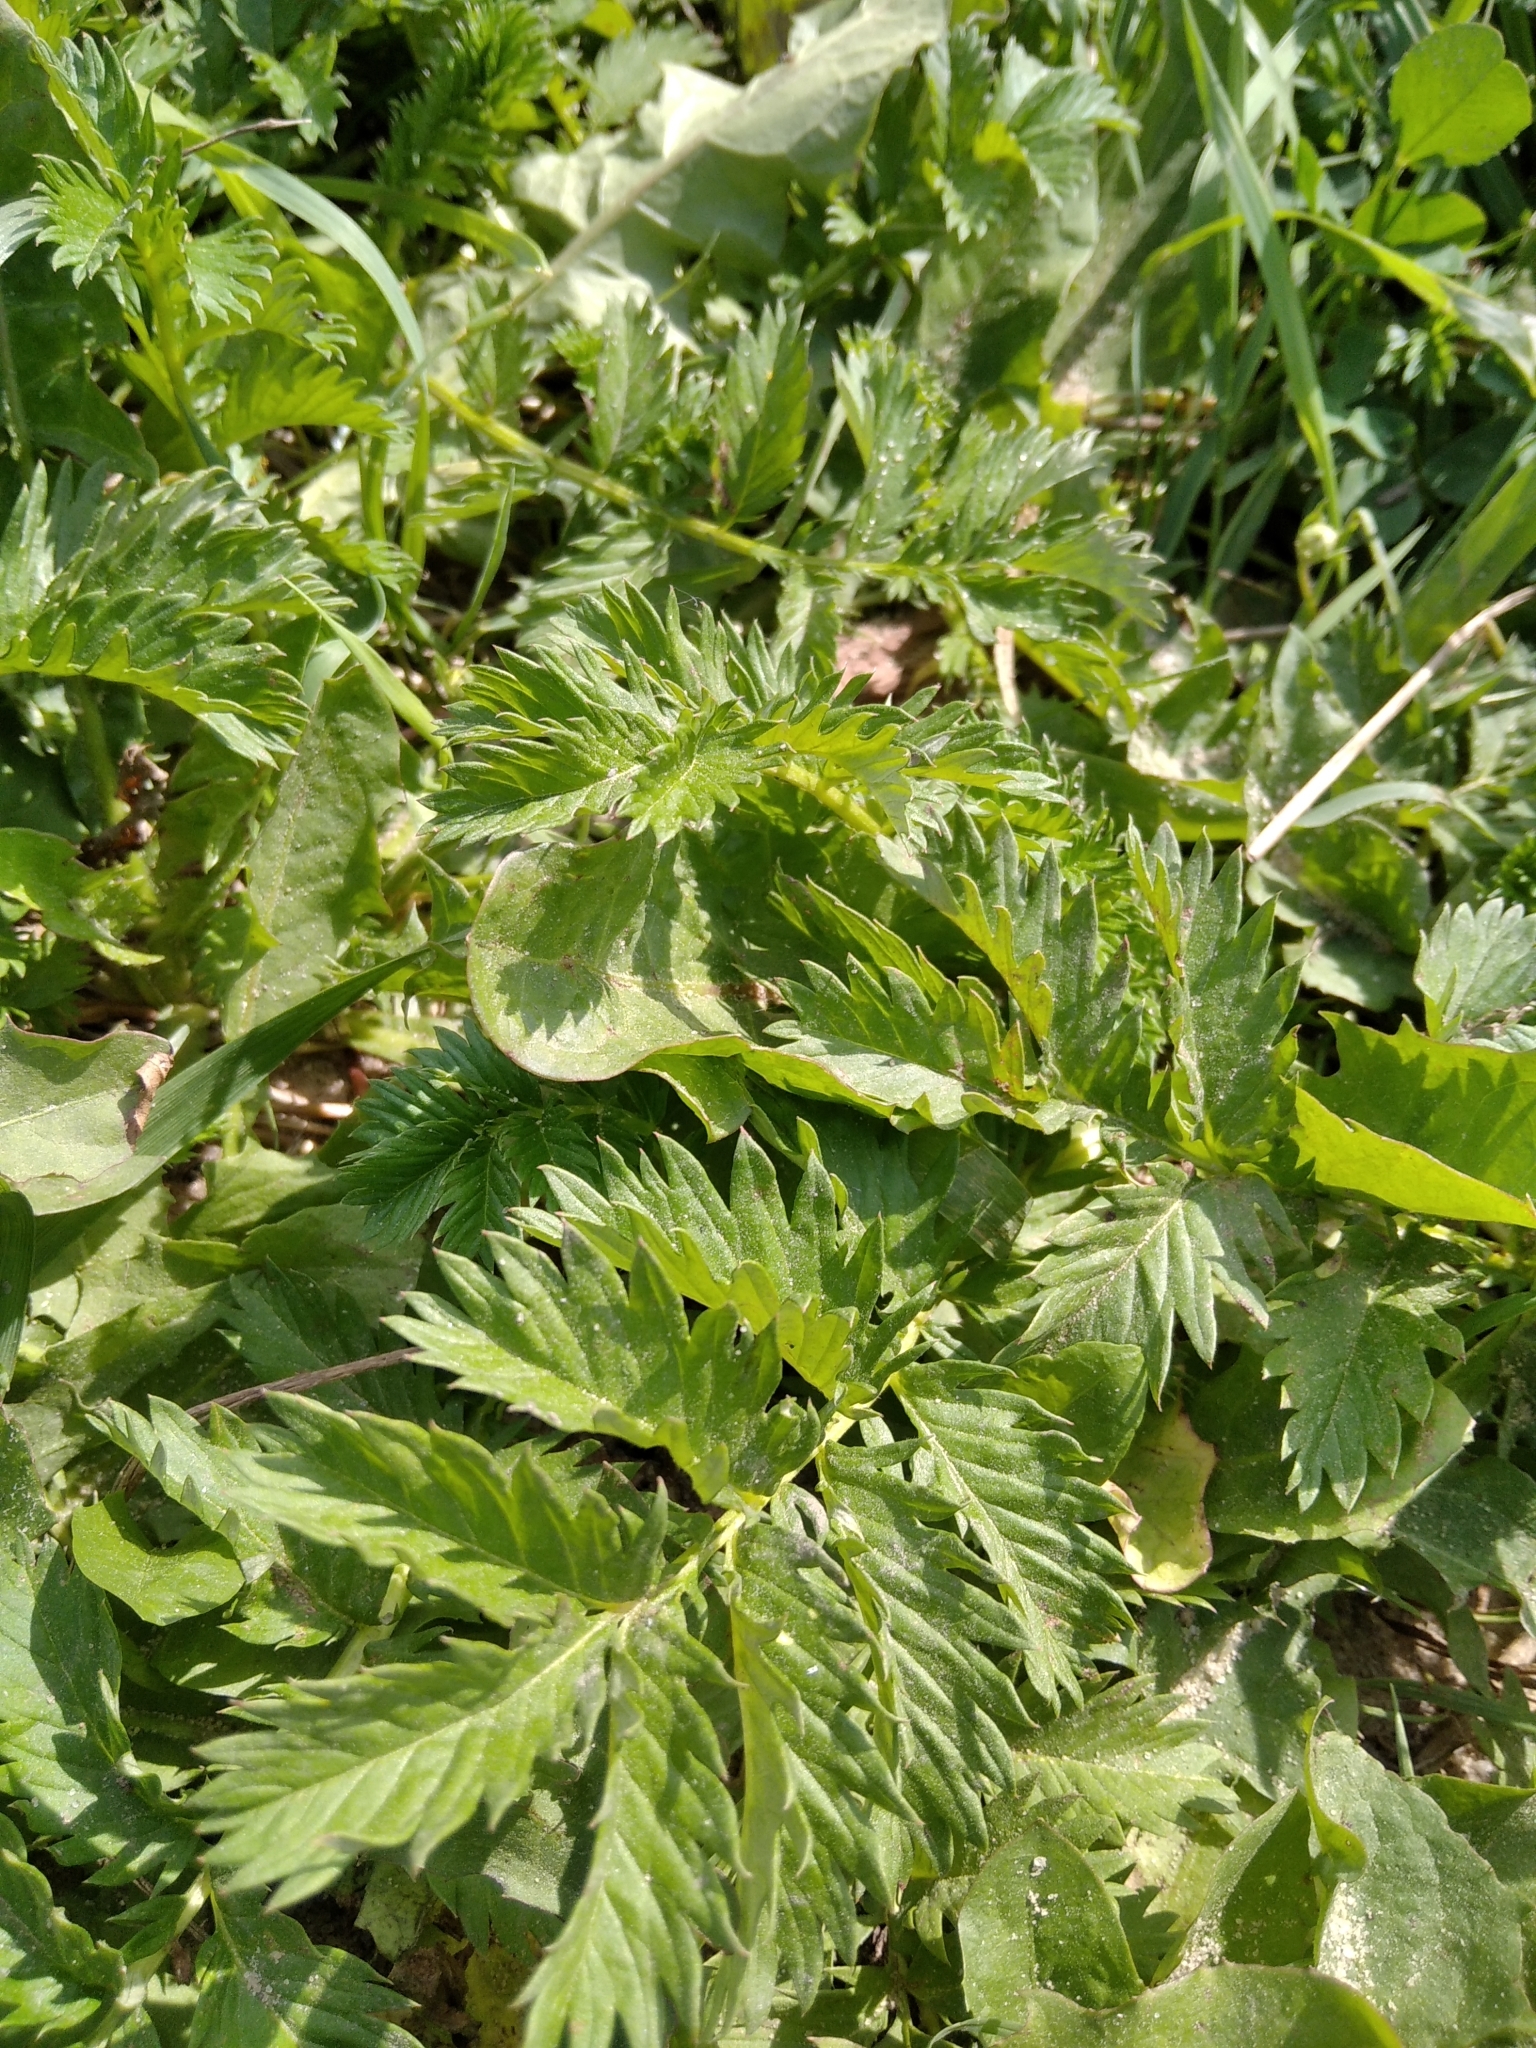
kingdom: Plantae
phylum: Tracheophyta
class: Magnoliopsida
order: Rosales
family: Rosaceae
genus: Argentina
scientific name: Argentina anserina
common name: Common silverweed
